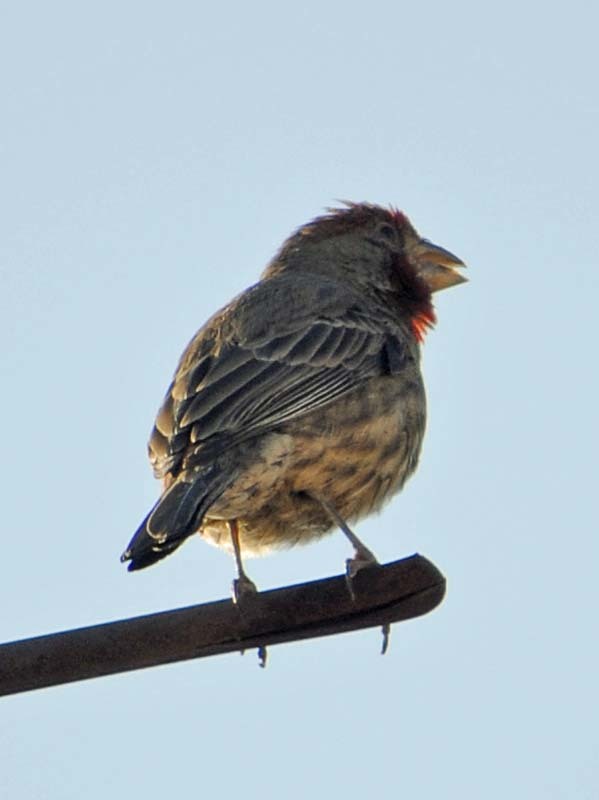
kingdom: Animalia
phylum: Chordata
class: Aves
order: Passeriformes
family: Fringillidae
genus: Haemorhous
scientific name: Haemorhous mexicanus
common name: House finch
